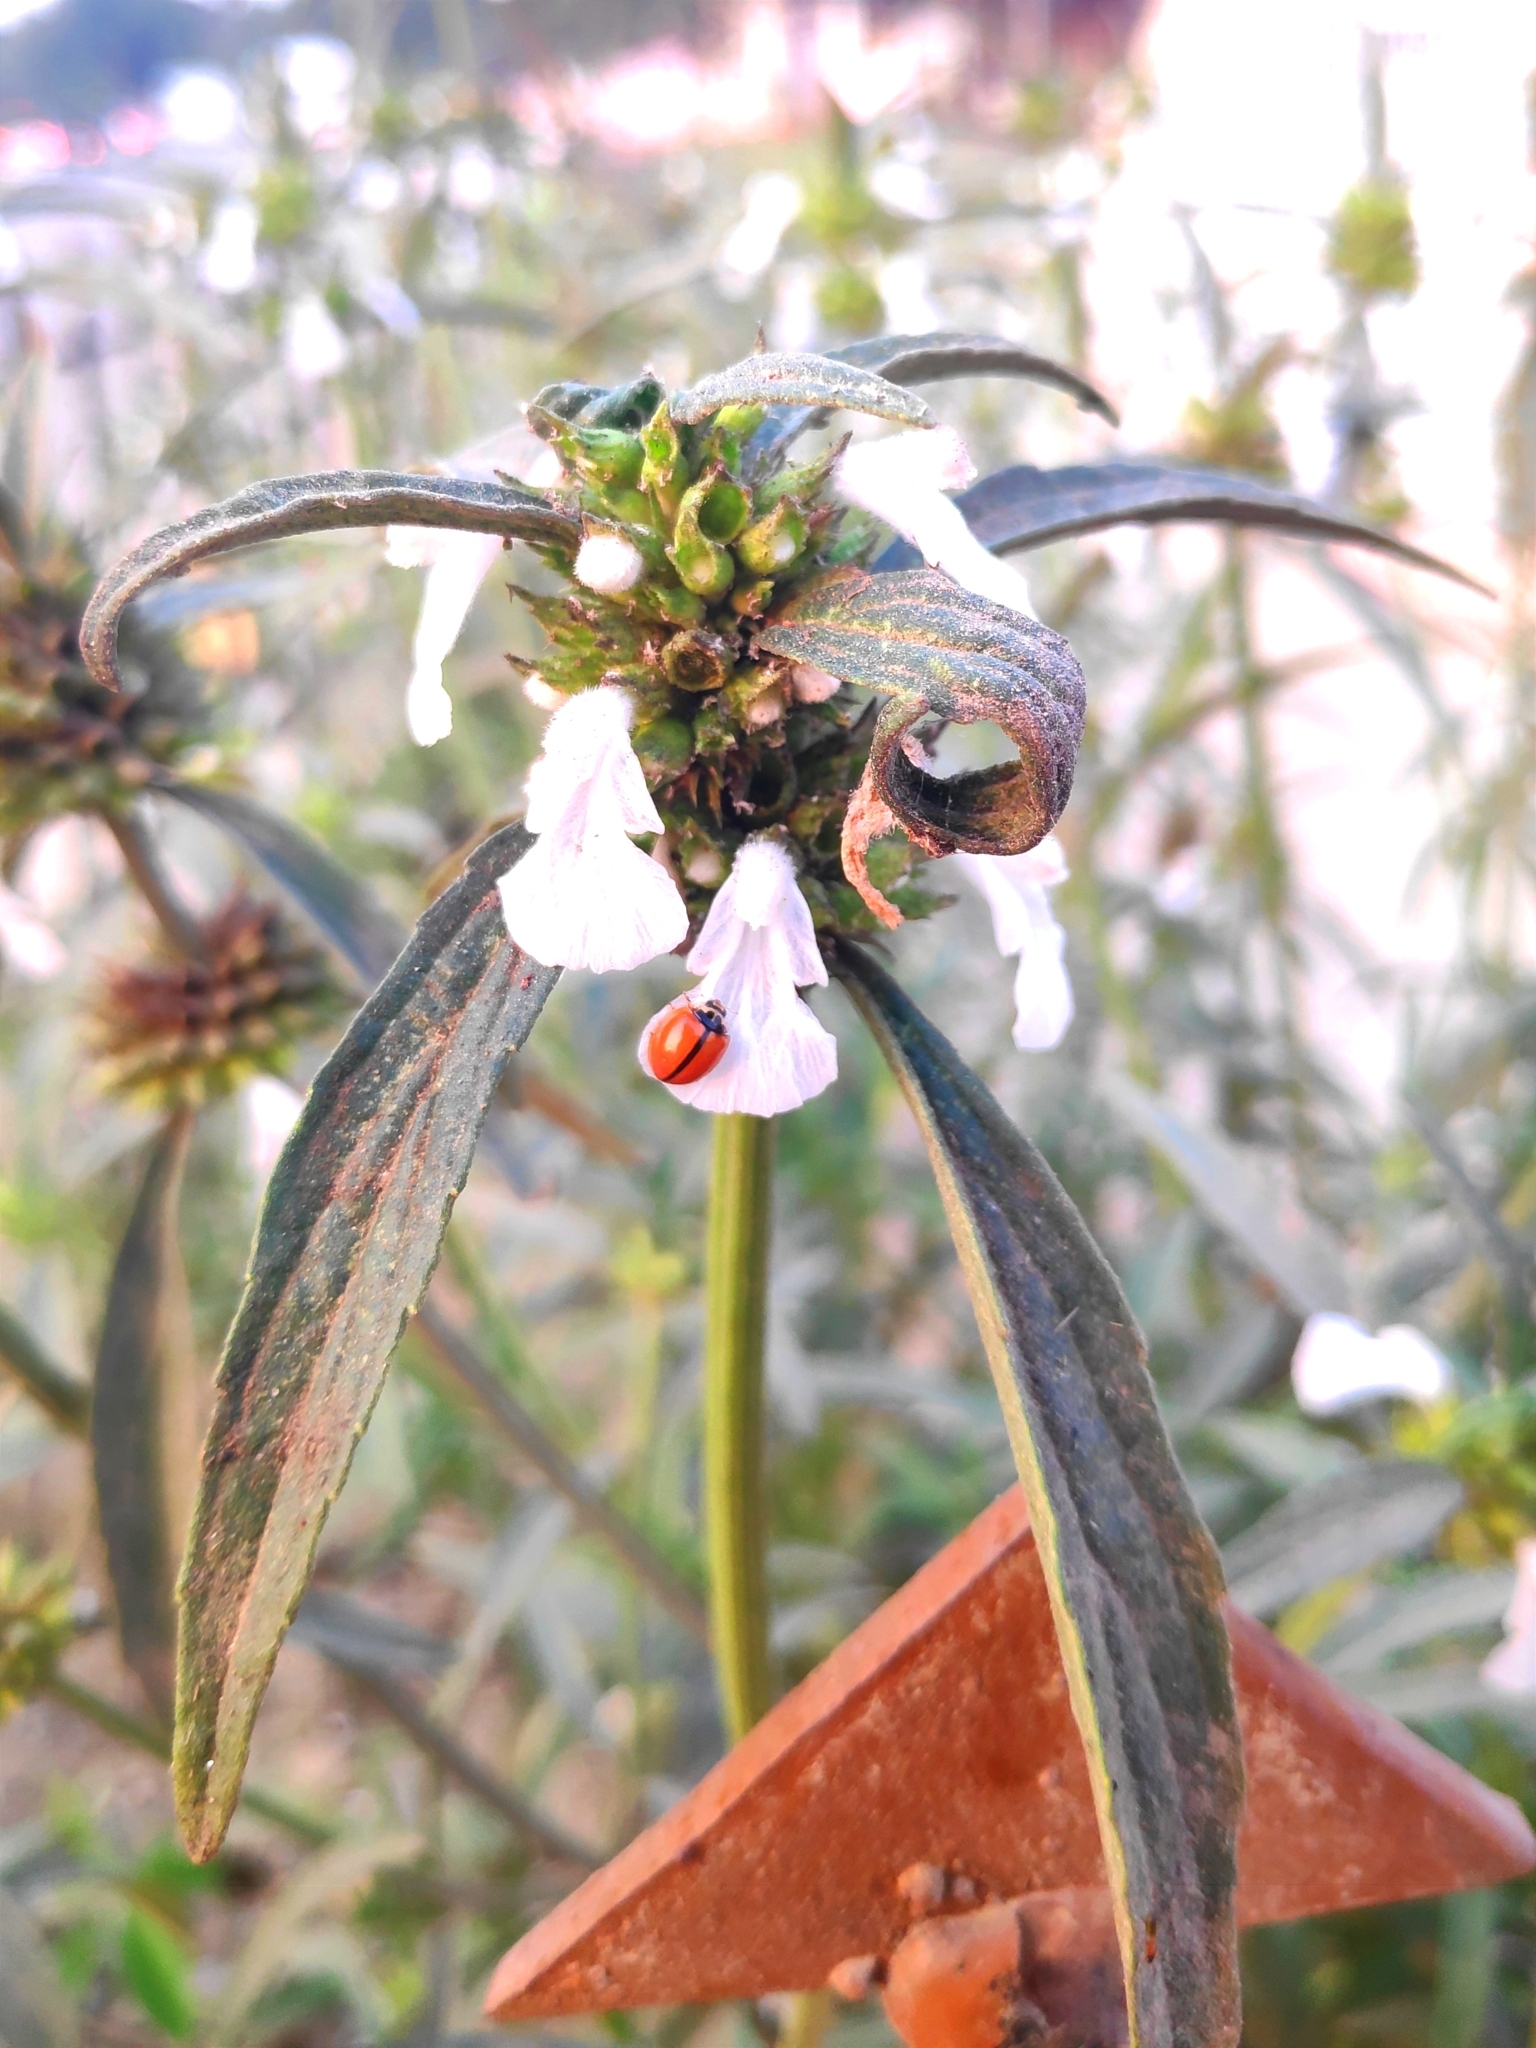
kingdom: Animalia
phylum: Arthropoda
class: Insecta
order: Coleoptera
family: Coccinellidae
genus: Micraspis
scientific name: Micraspis discolor
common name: Lady beetle
